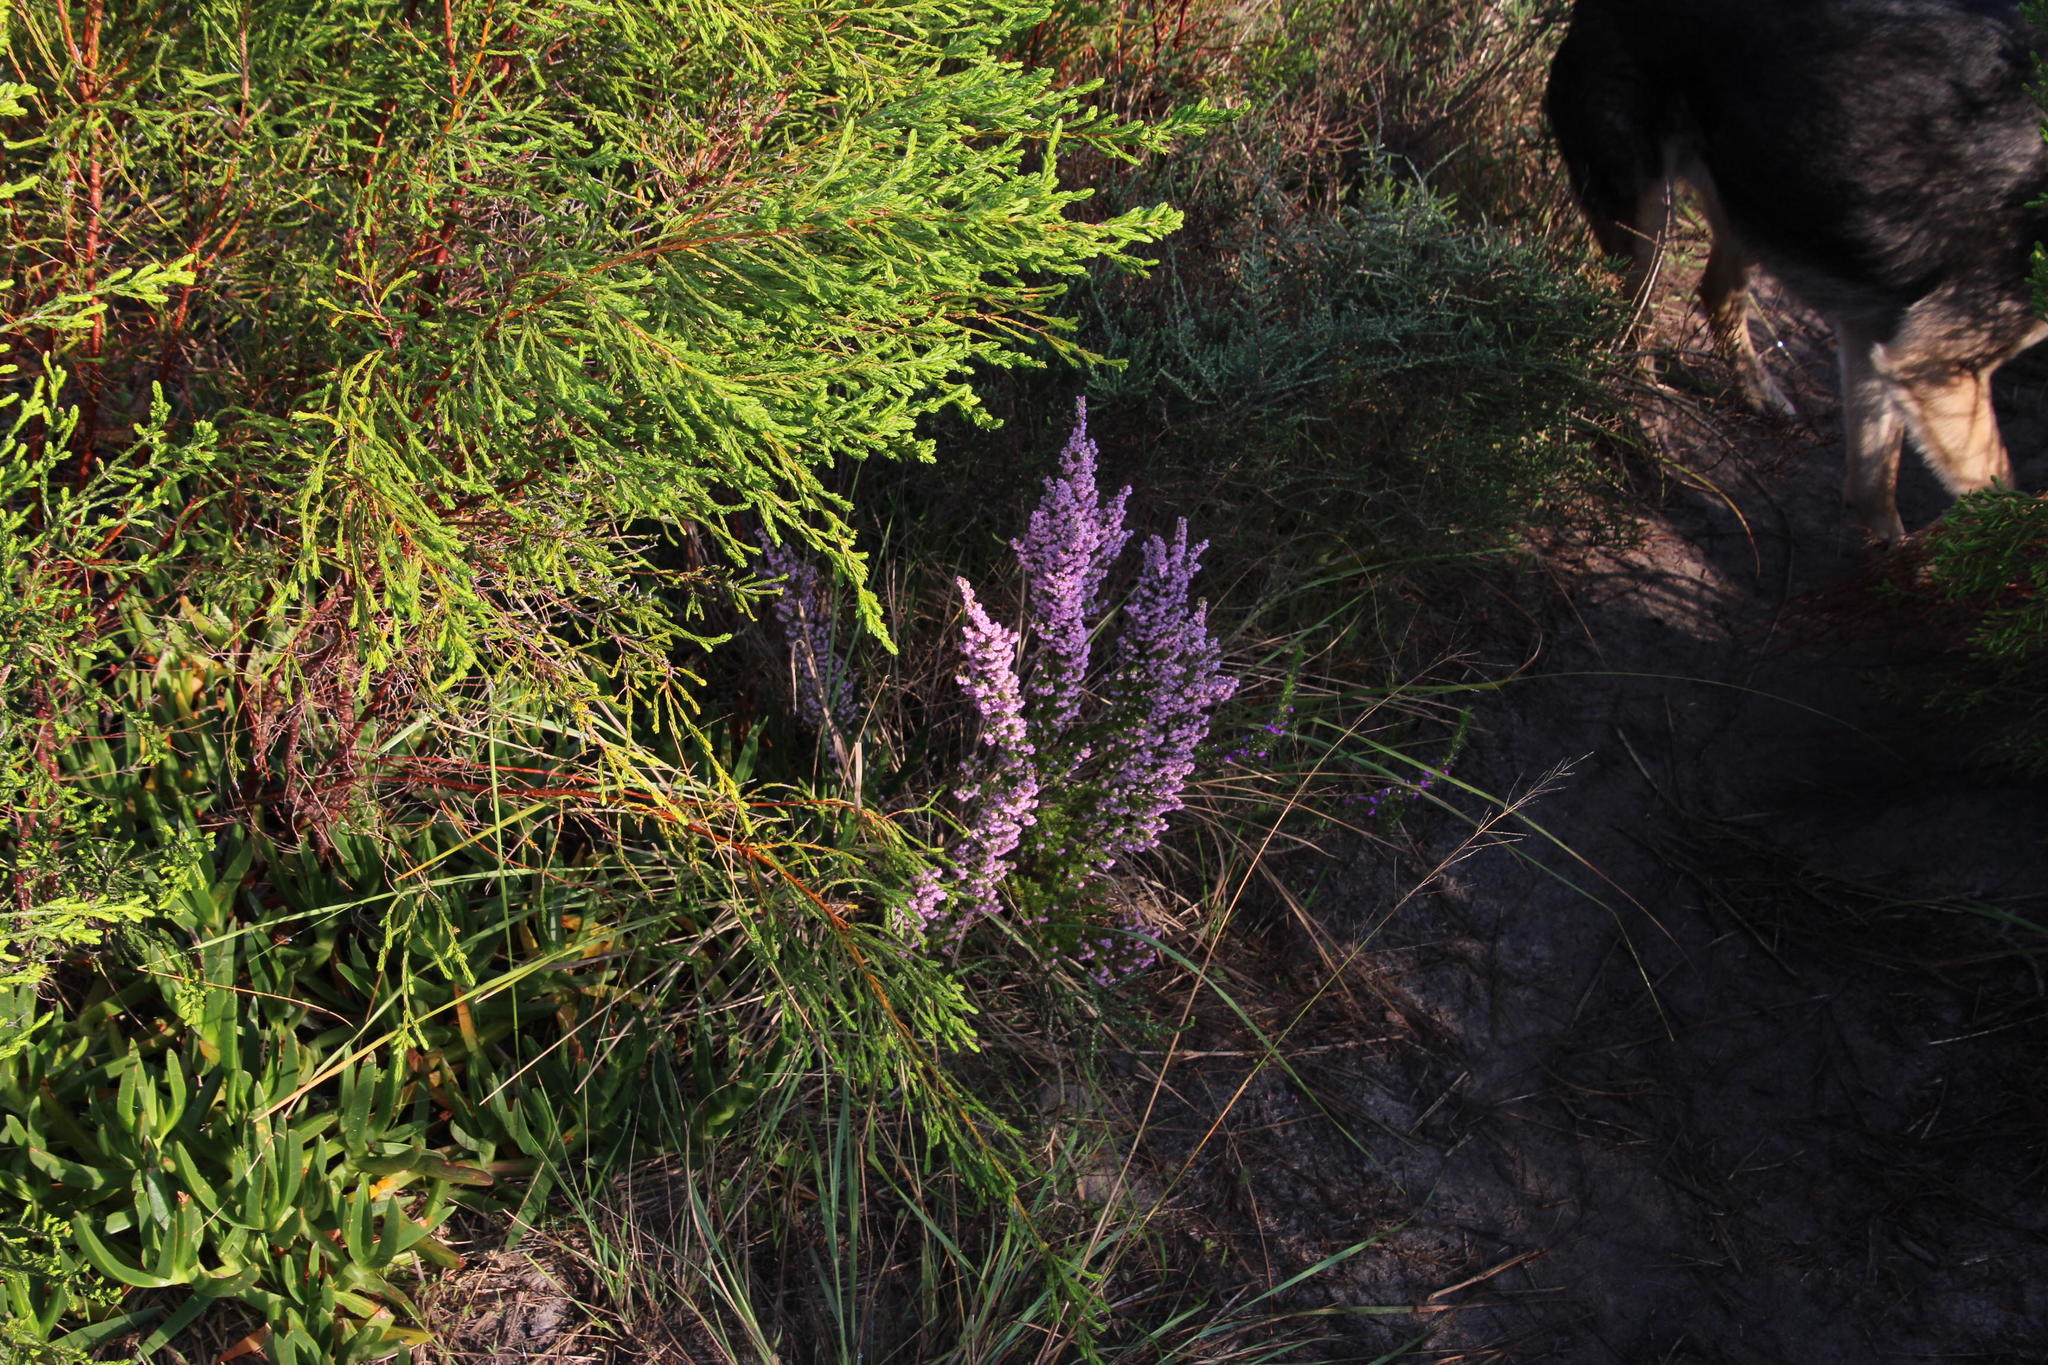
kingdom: Plantae
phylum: Tracheophyta
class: Magnoliopsida
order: Ericales
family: Ericaceae
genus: Erica
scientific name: Erica mauritanica
